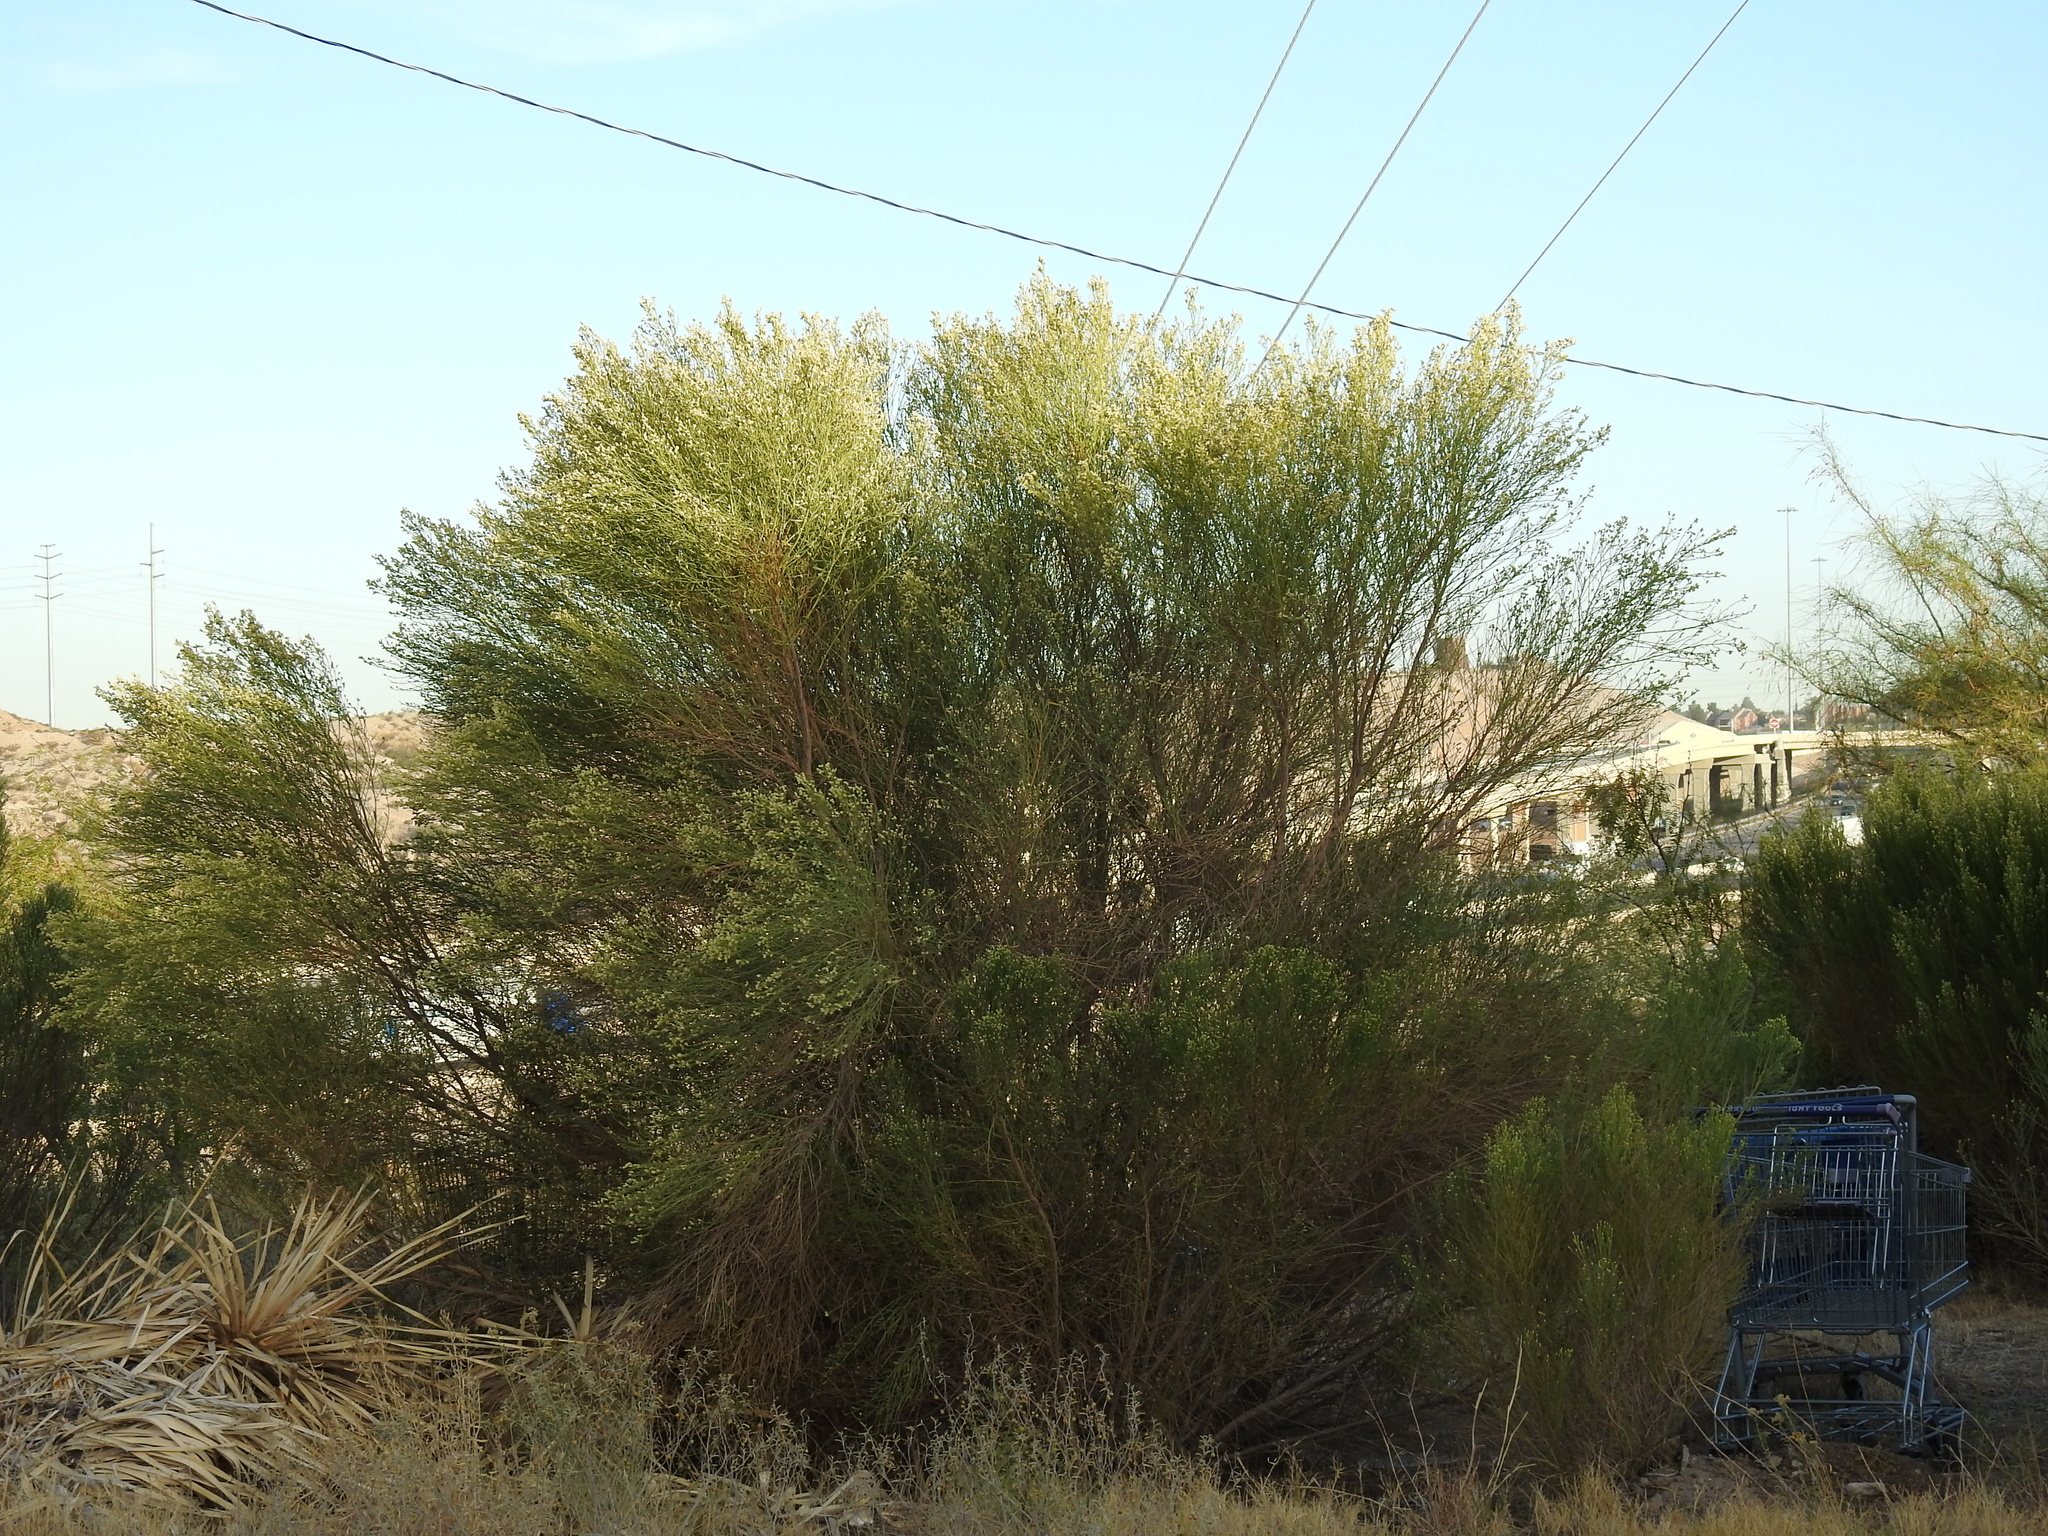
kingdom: Plantae
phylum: Tracheophyta
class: Magnoliopsida
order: Asterales
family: Asteraceae
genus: Baccharis
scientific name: Baccharis sarothroides
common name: Desert-broom
